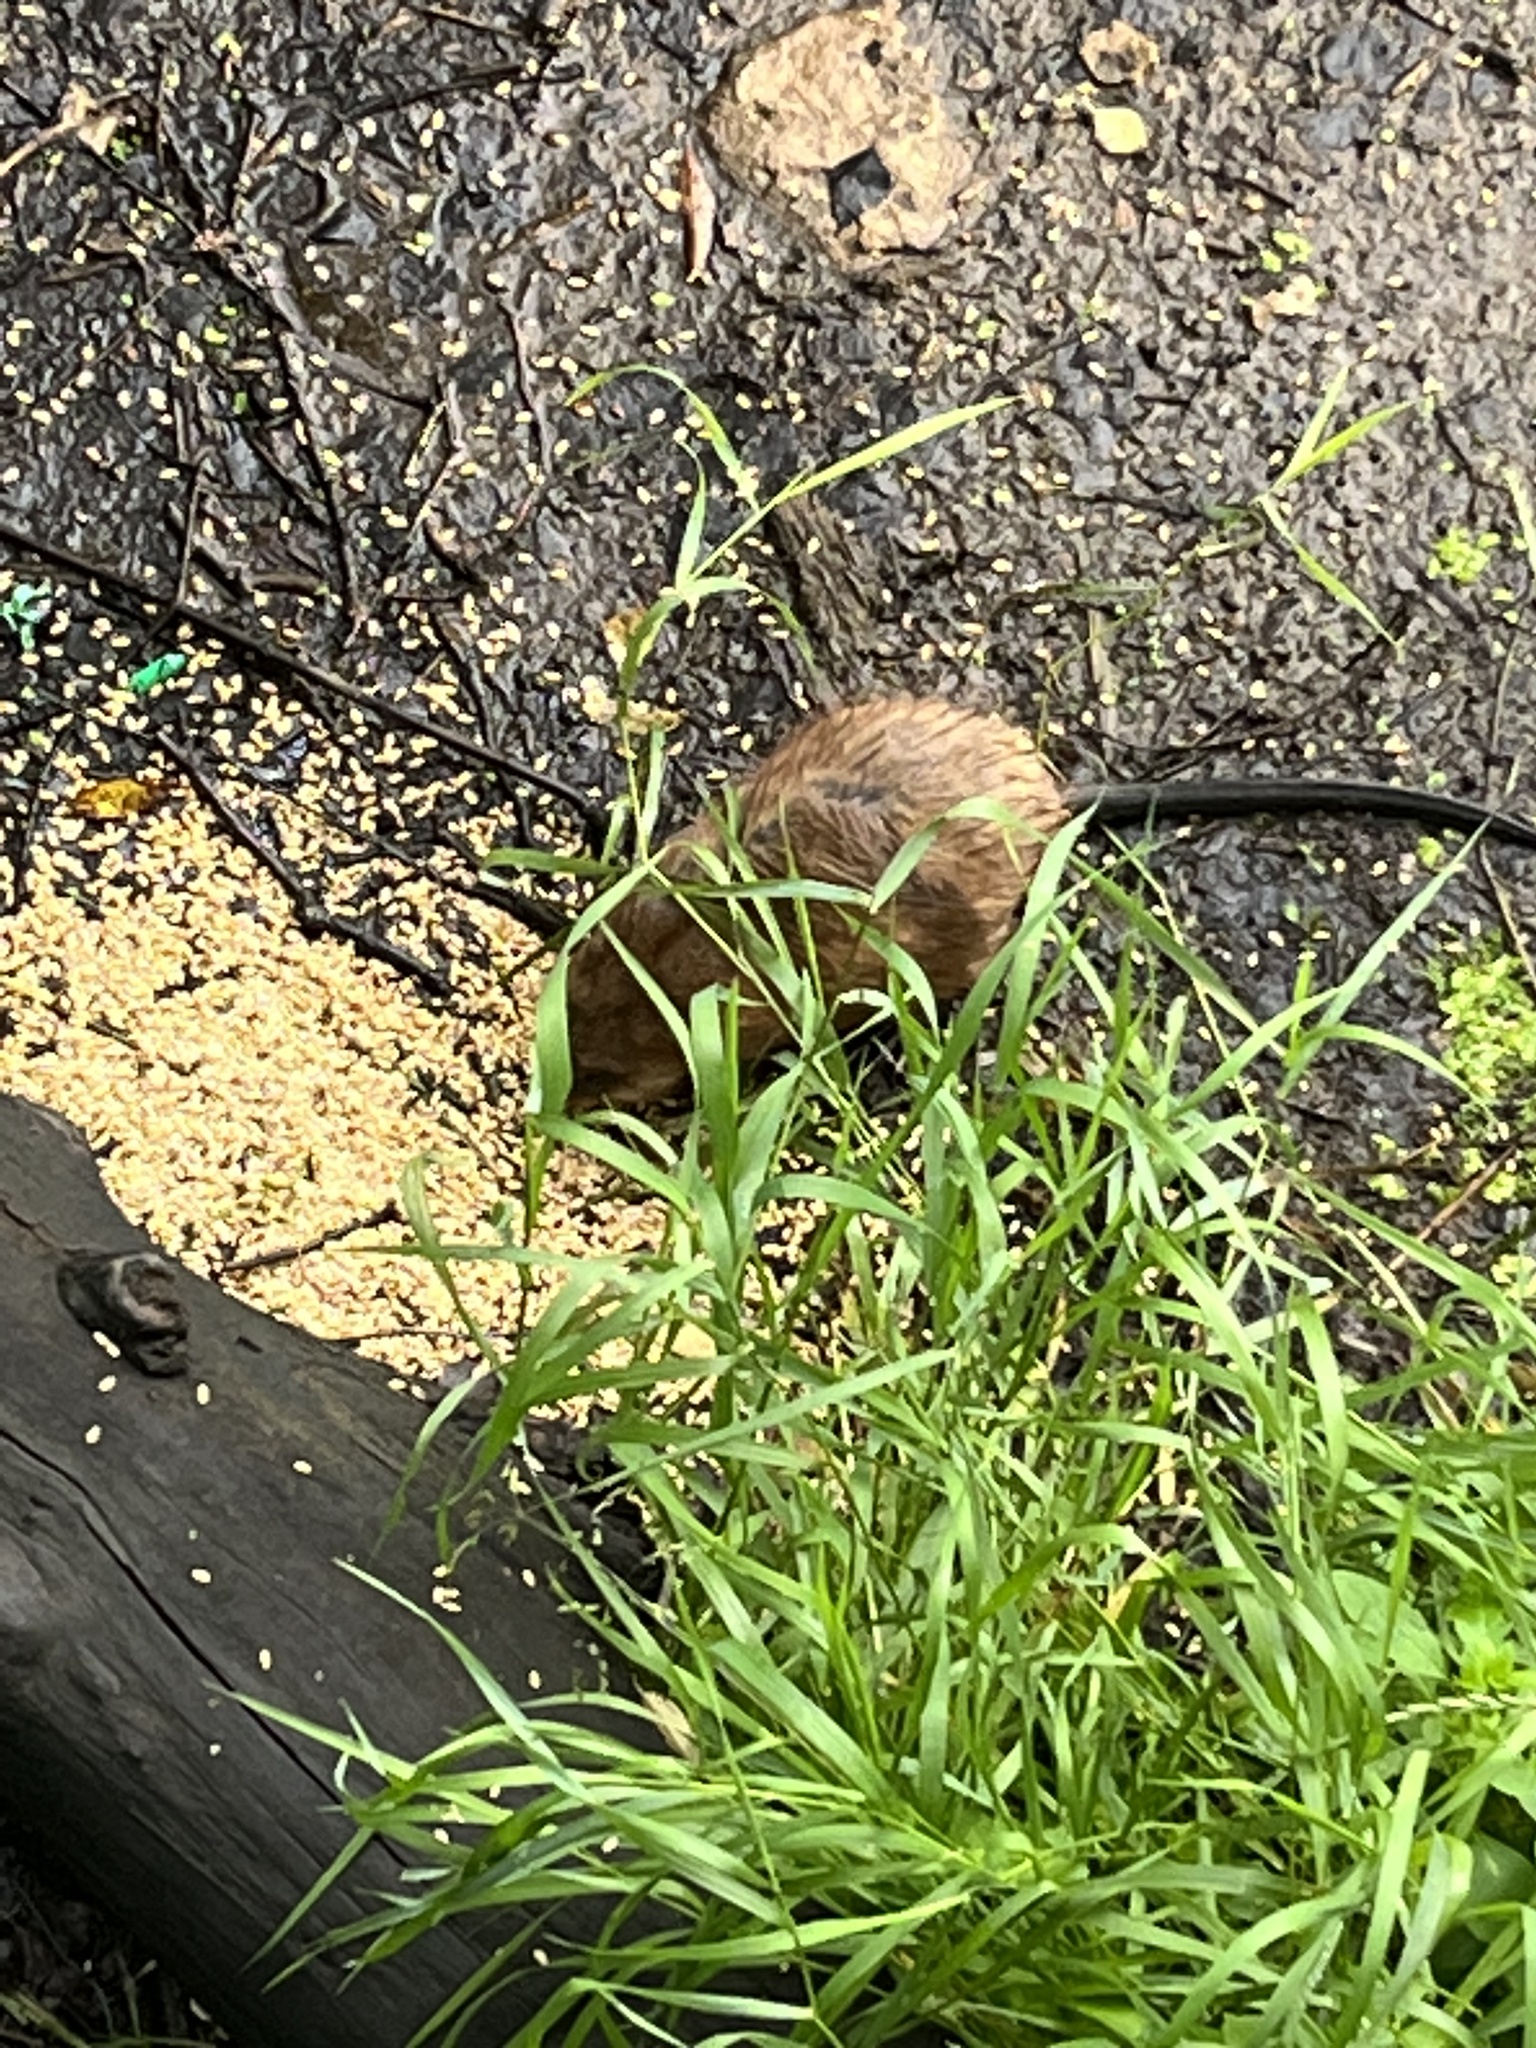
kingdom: Animalia
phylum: Chordata
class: Mammalia
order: Rodentia
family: Cricetidae
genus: Ondatra
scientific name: Ondatra zibethicus
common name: Muskrat
